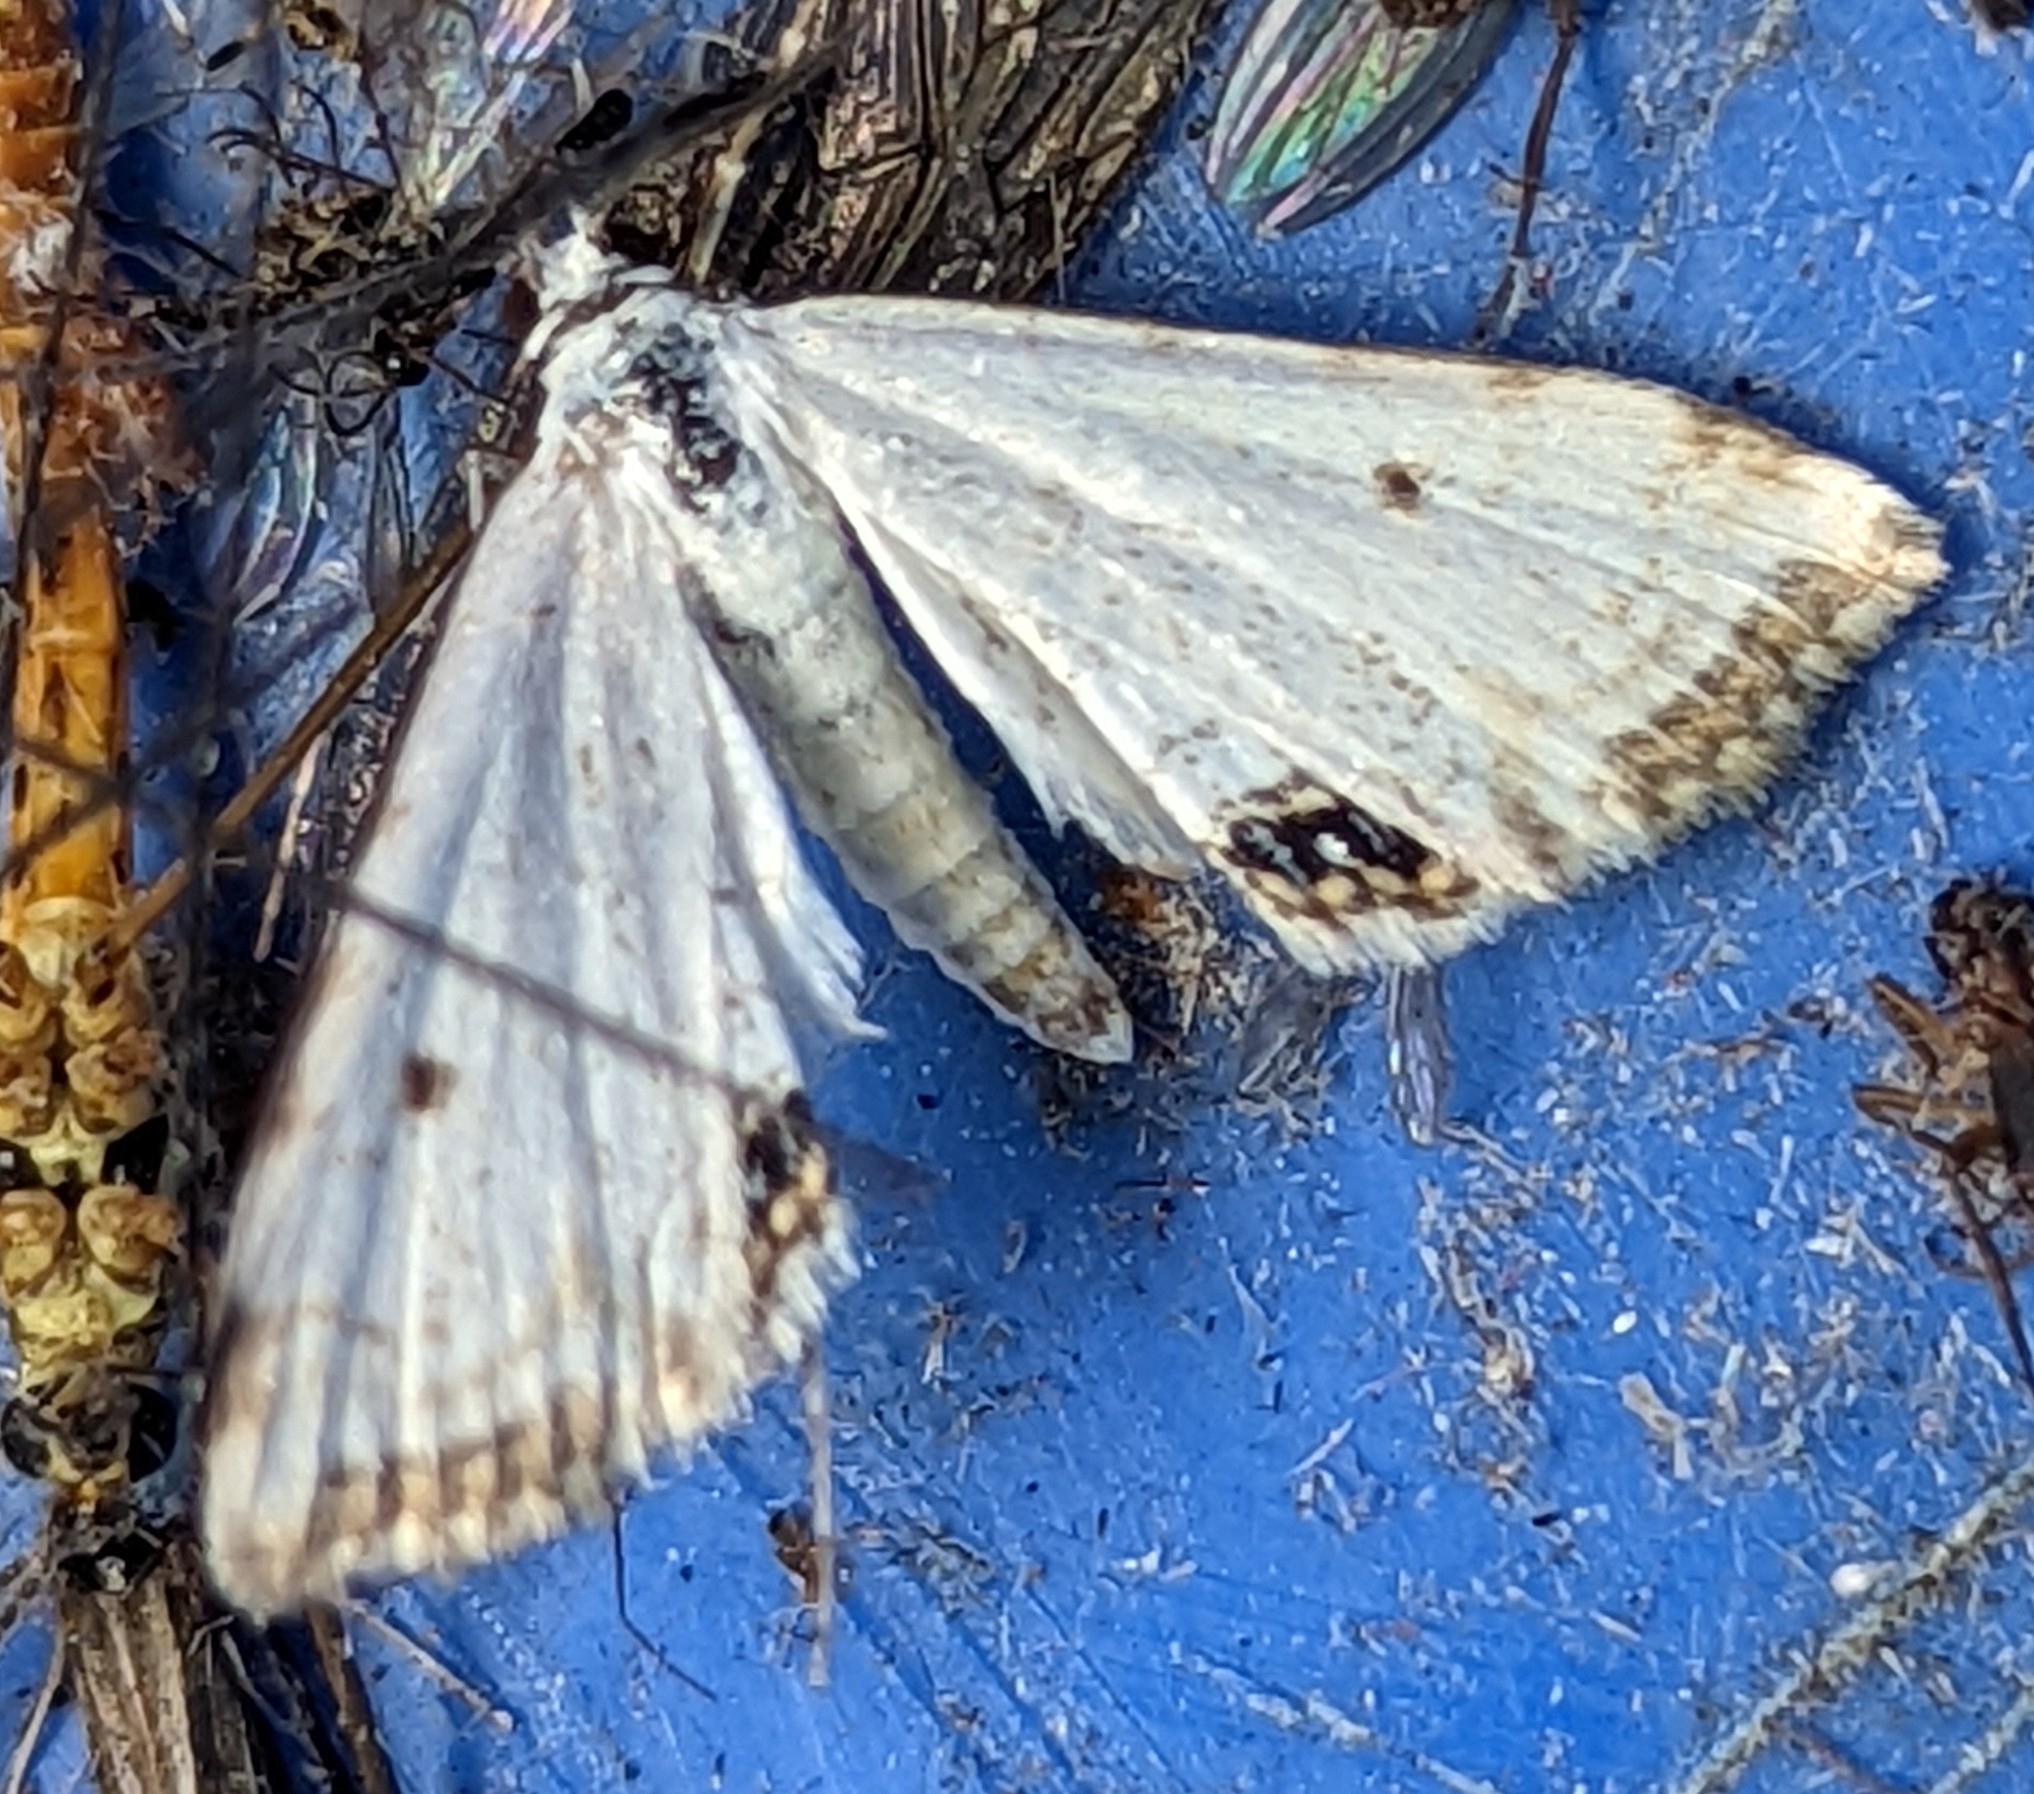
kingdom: Animalia
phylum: Arthropoda
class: Insecta
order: Lepidoptera
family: Crambidae
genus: Cataclysta
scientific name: Cataclysta lemnata
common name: Small china-mark
